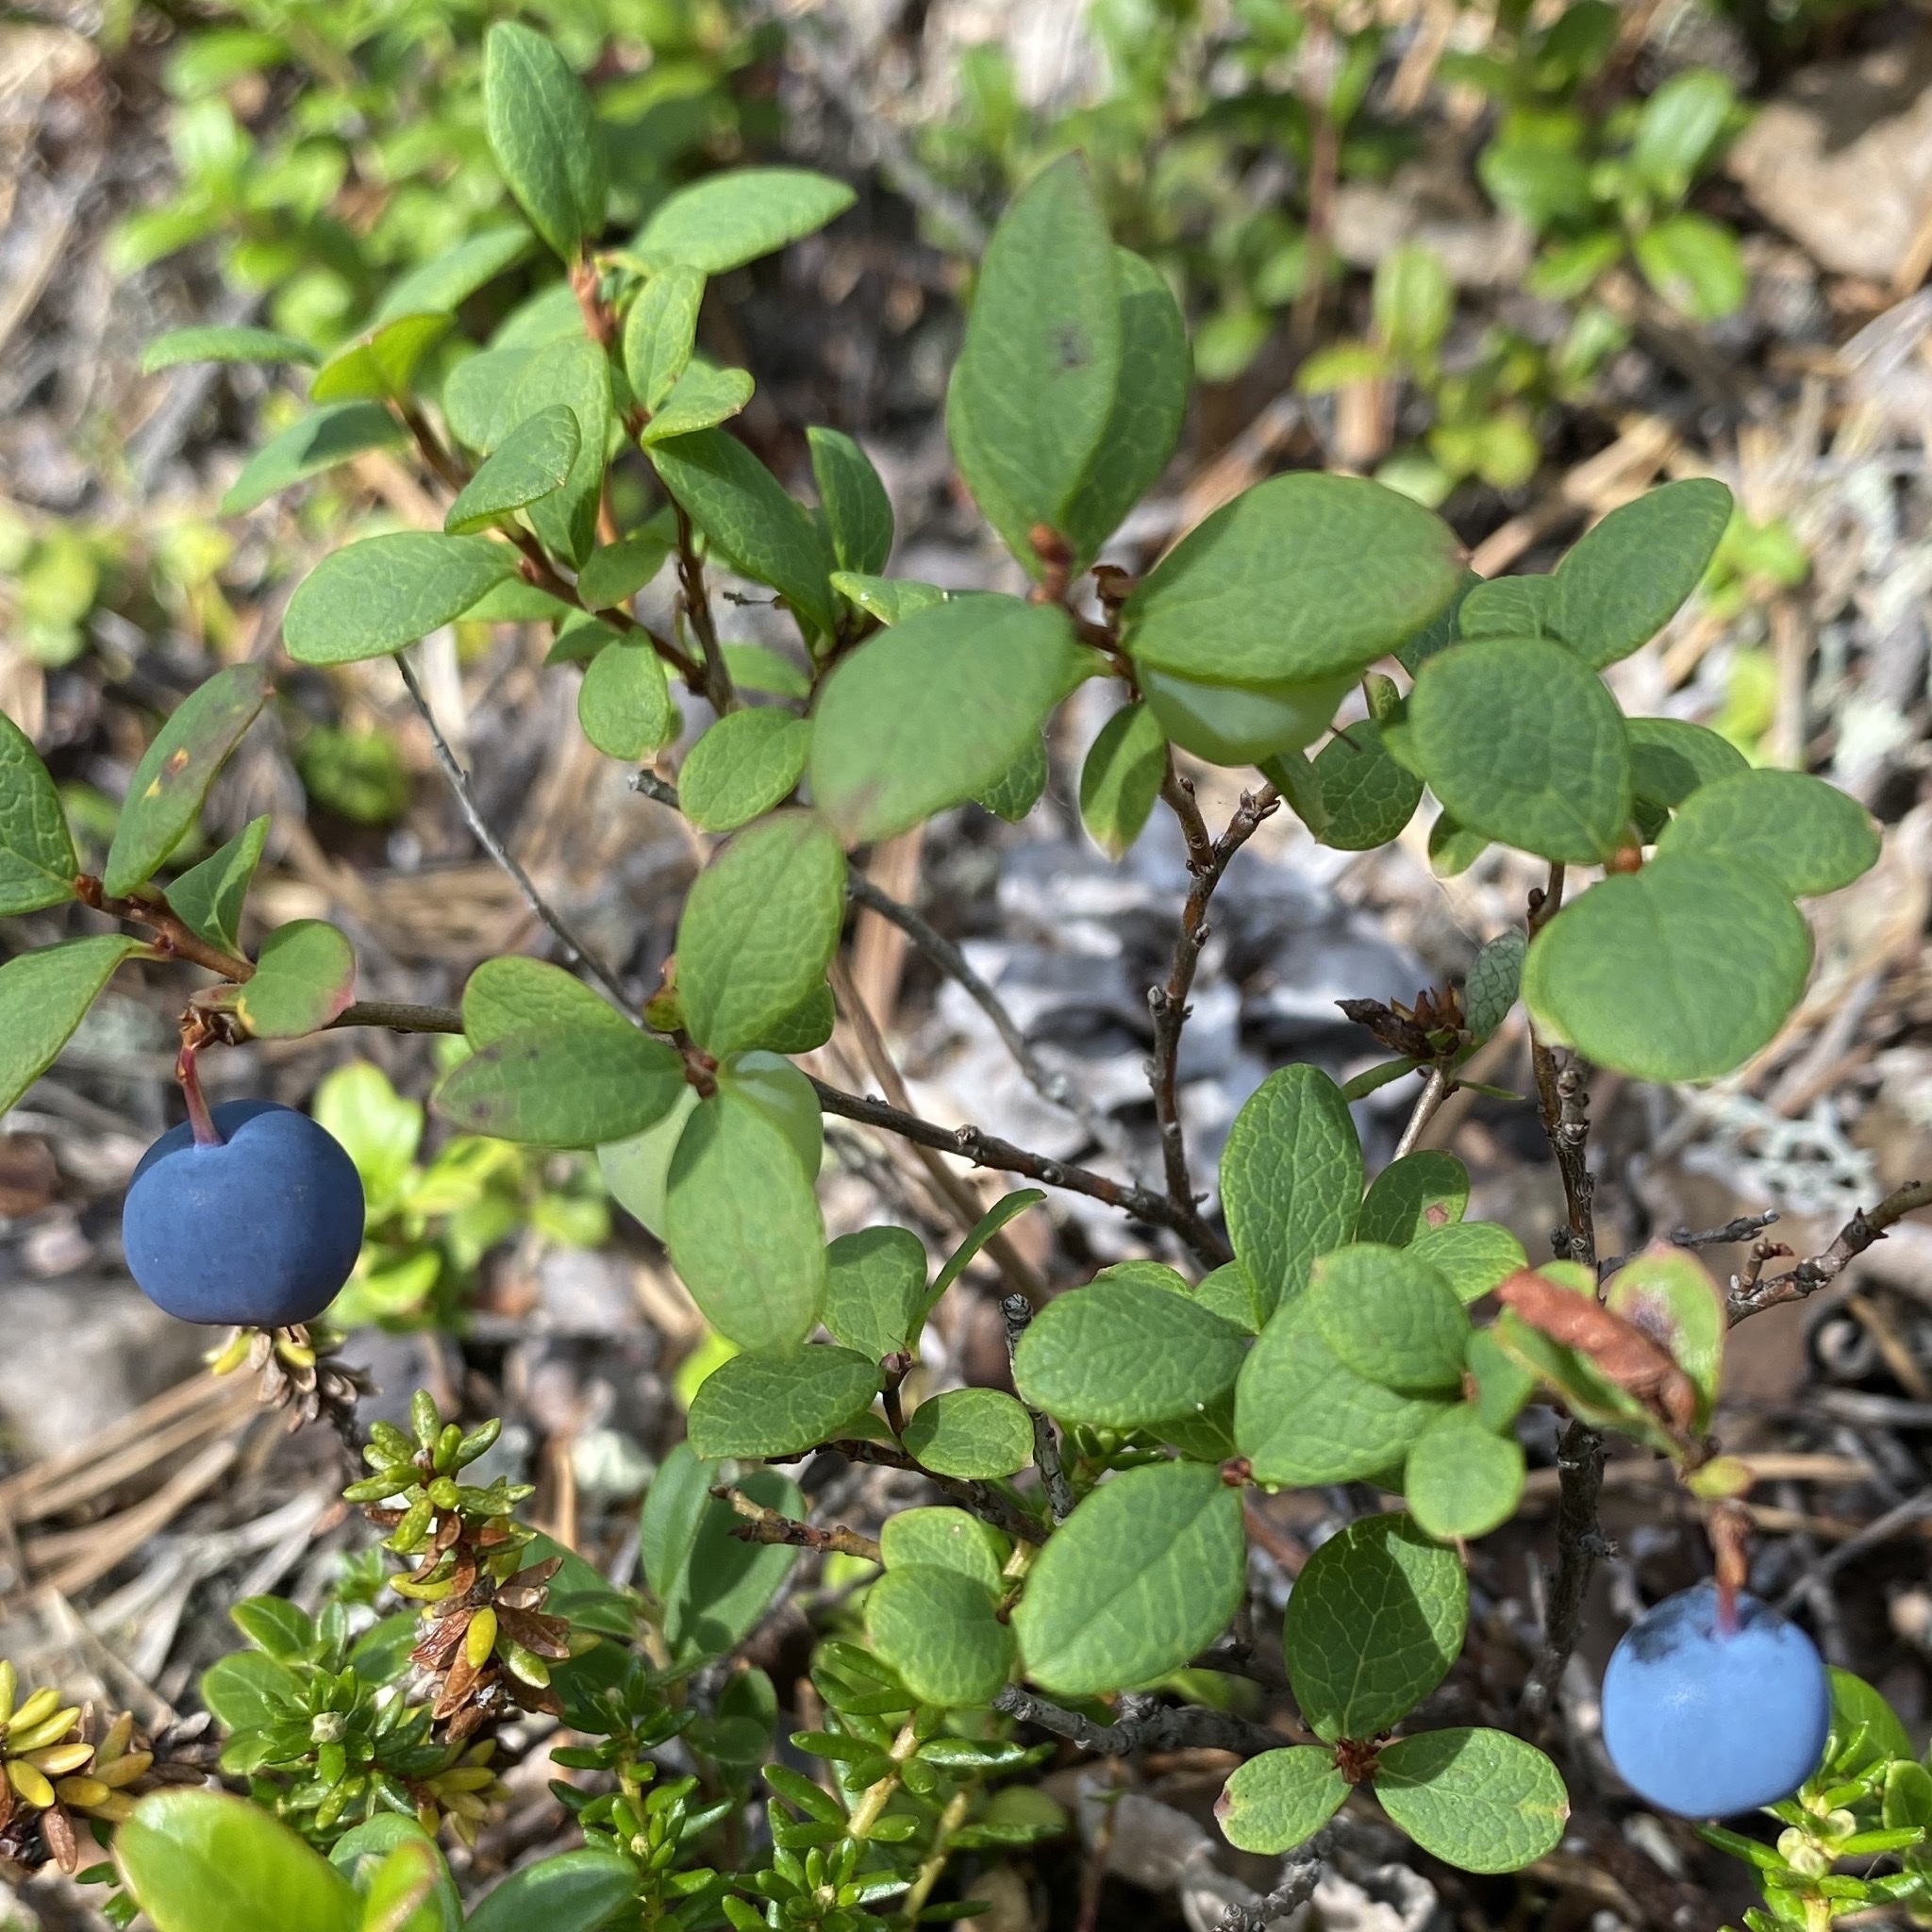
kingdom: Plantae
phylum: Tracheophyta
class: Magnoliopsida
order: Ericales
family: Ericaceae
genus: Vaccinium
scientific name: Vaccinium uliginosum
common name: Bog bilberry
